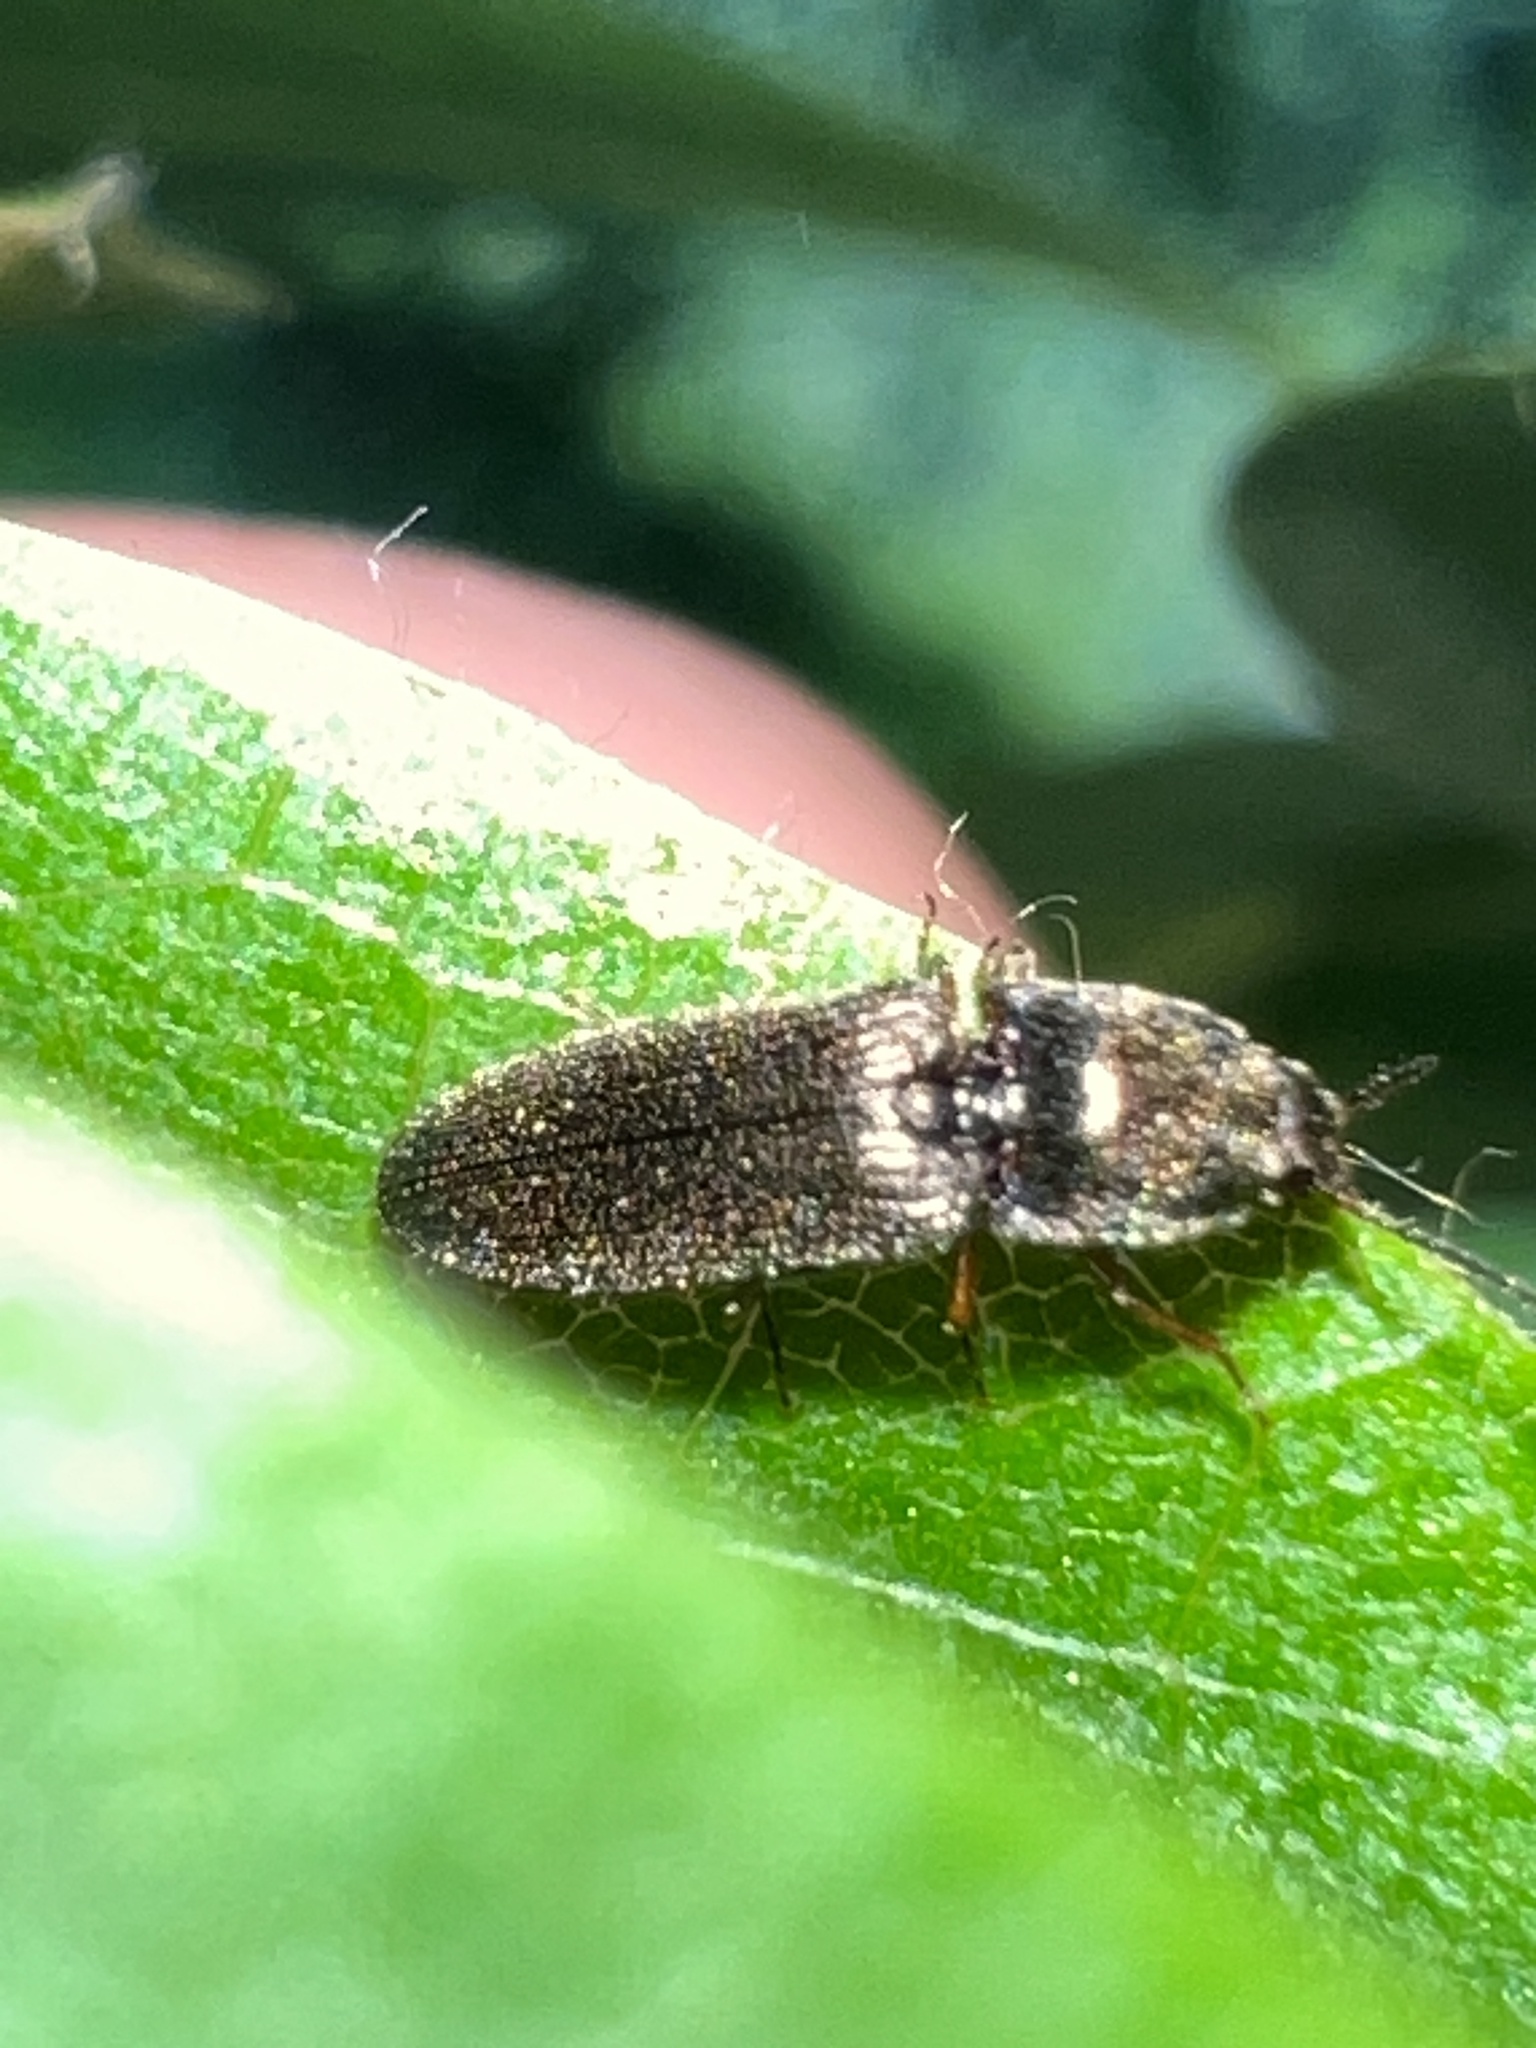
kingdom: Animalia
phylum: Arthropoda
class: Insecta
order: Coleoptera
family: Elateridae
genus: Limonius
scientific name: Limonius quercinus
